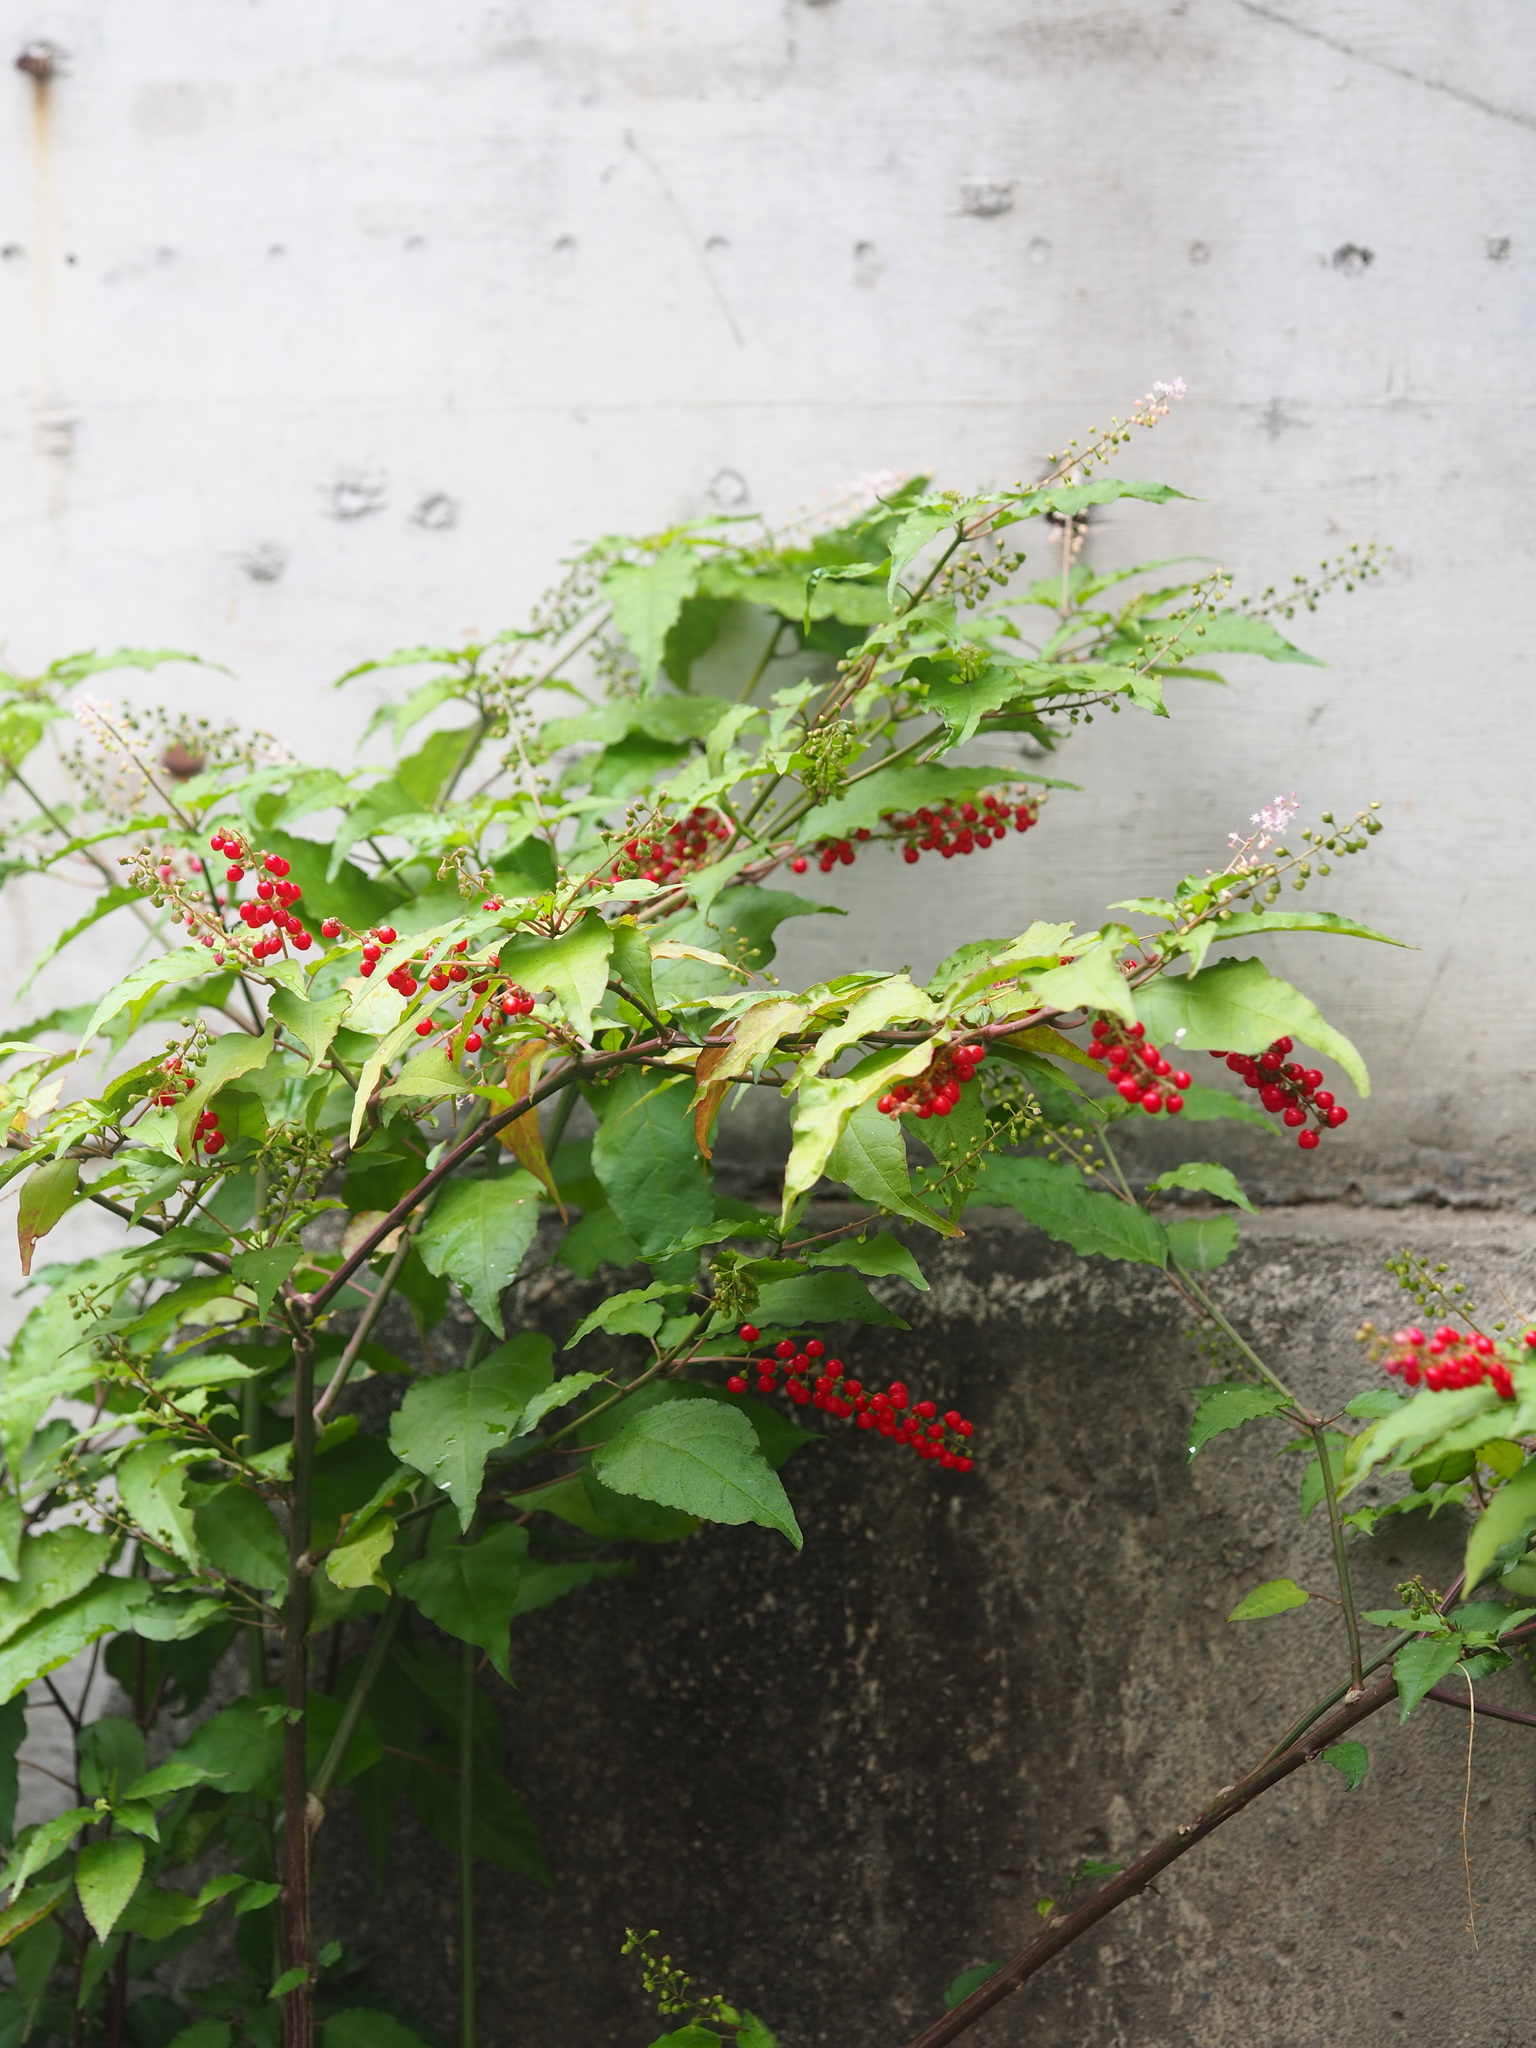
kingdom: Plantae
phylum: Tracheophyta
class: Magnoliopsida
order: Caryophyllales
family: Phytolaccaceae
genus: Rivina
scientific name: Rivina humilis
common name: Rougeplant
